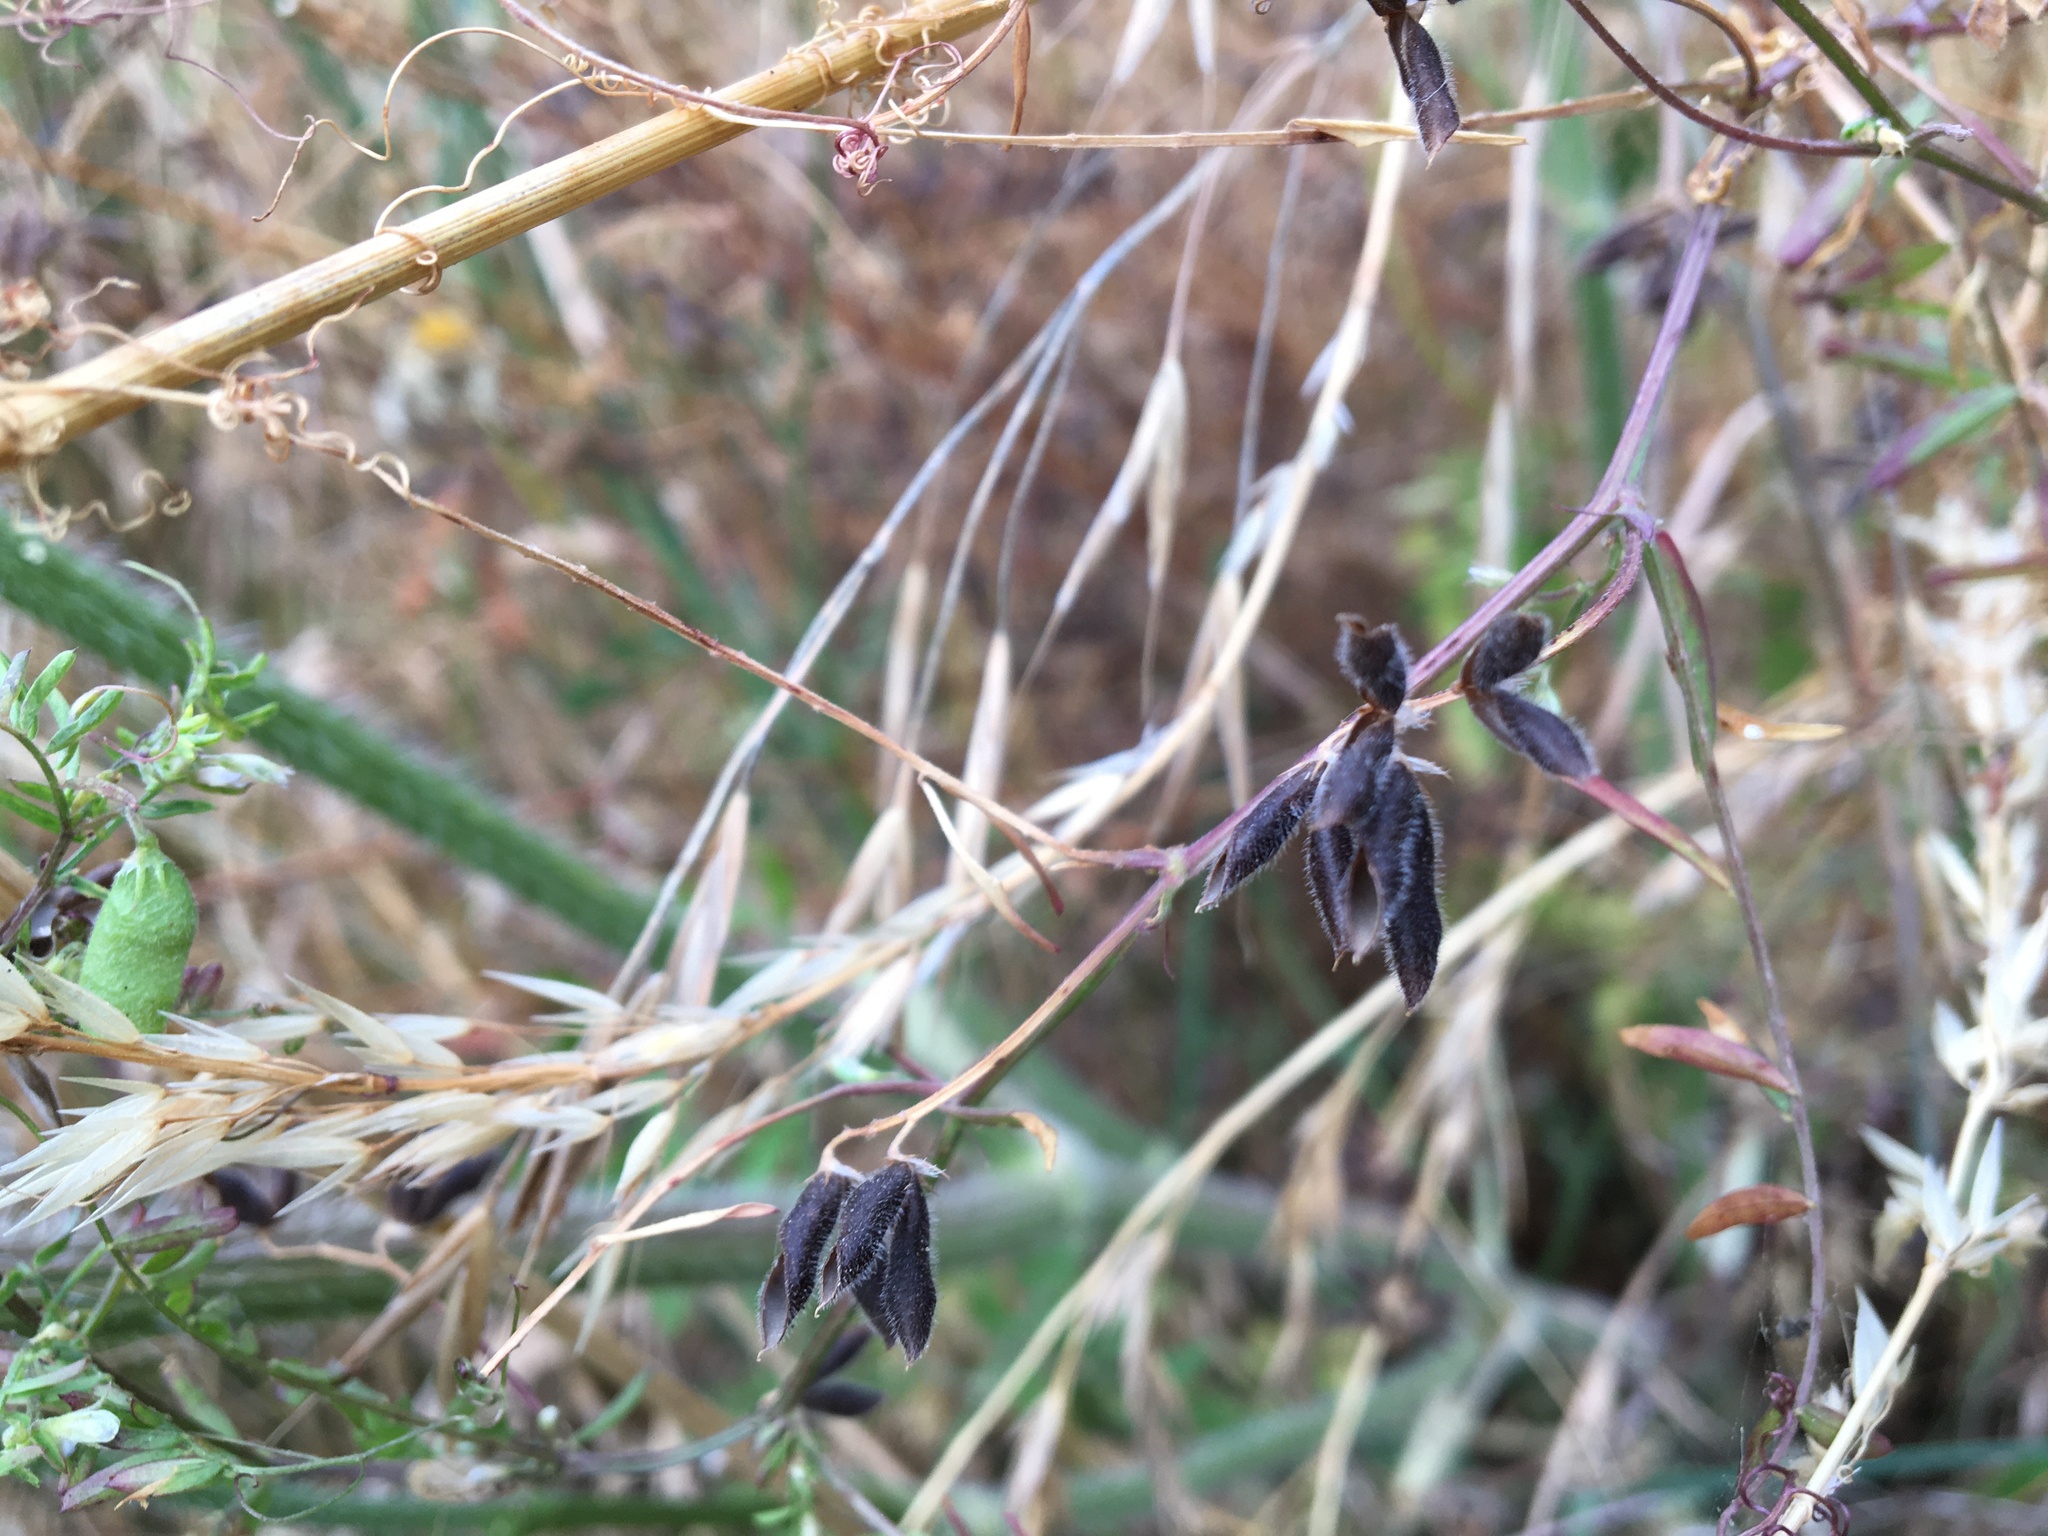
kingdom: Plantae
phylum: Tracheophyta
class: Magnoliopsida
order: Fabales
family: Fabaceae
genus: Vicia
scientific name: Vicia hirsuta
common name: Tiny vetch
